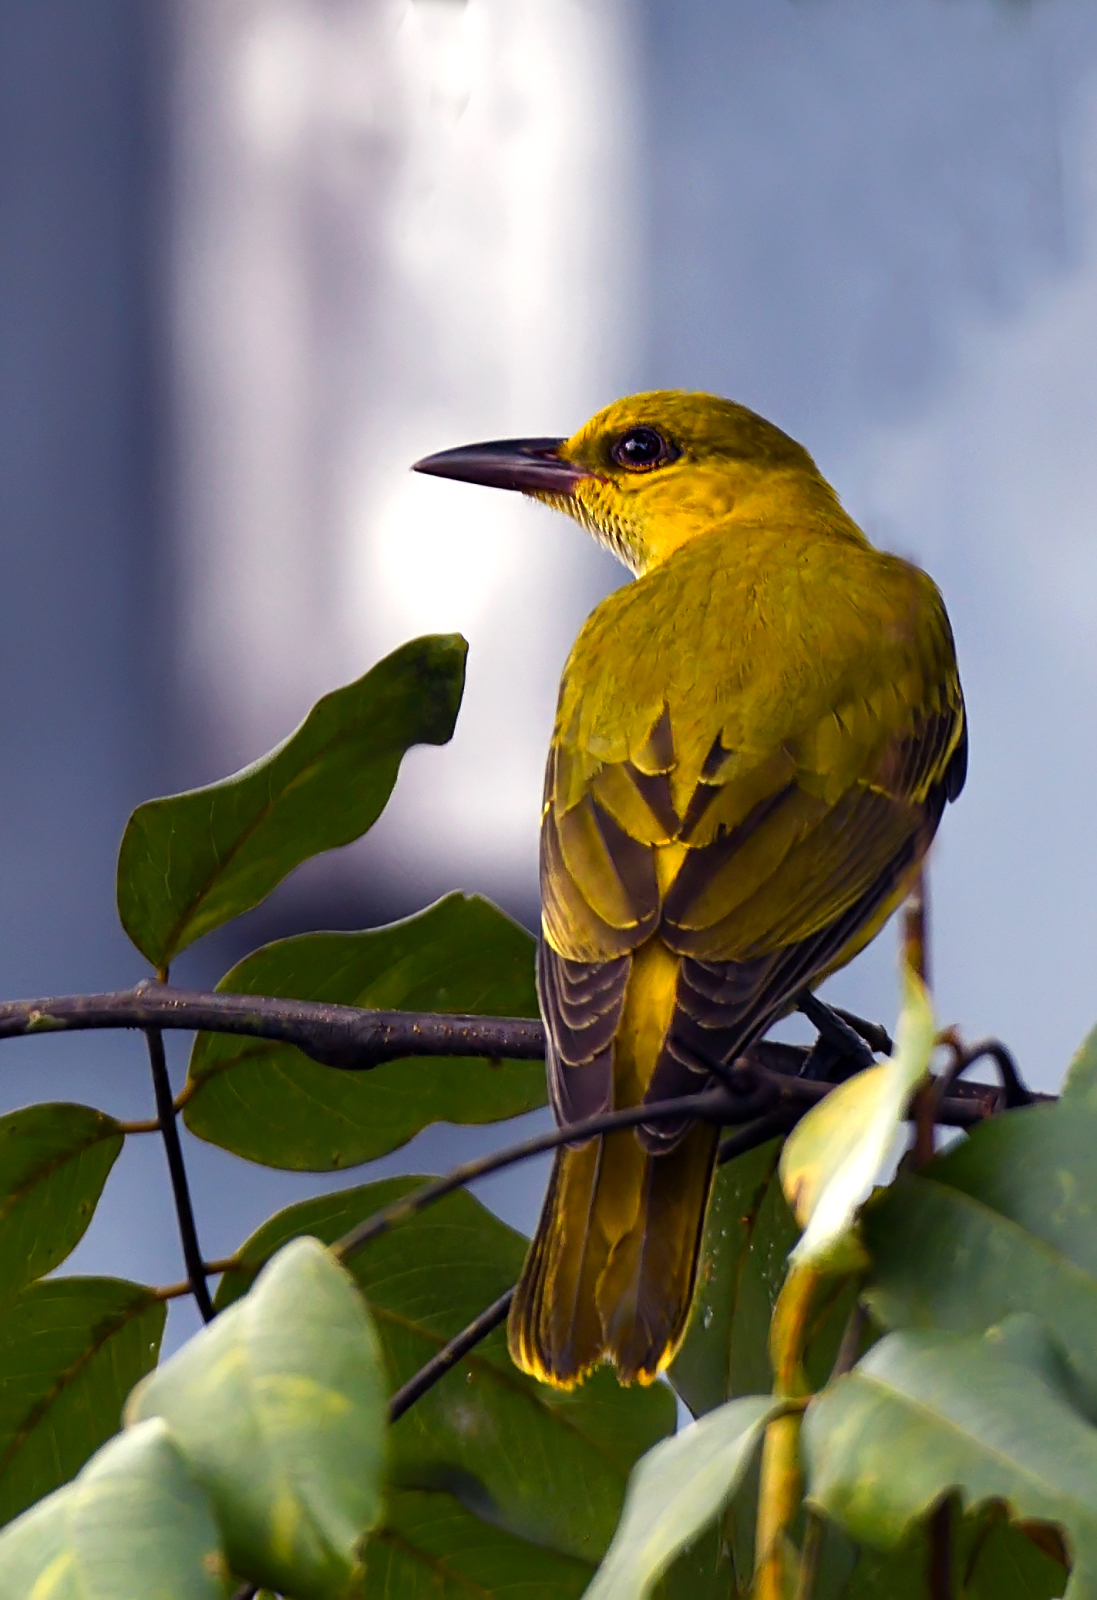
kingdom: Animalia
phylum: Chordata
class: Aves
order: Passeriformes
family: Oriolidae
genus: Oriolus
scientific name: Oriolus kundoo
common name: Indian golden oriole
